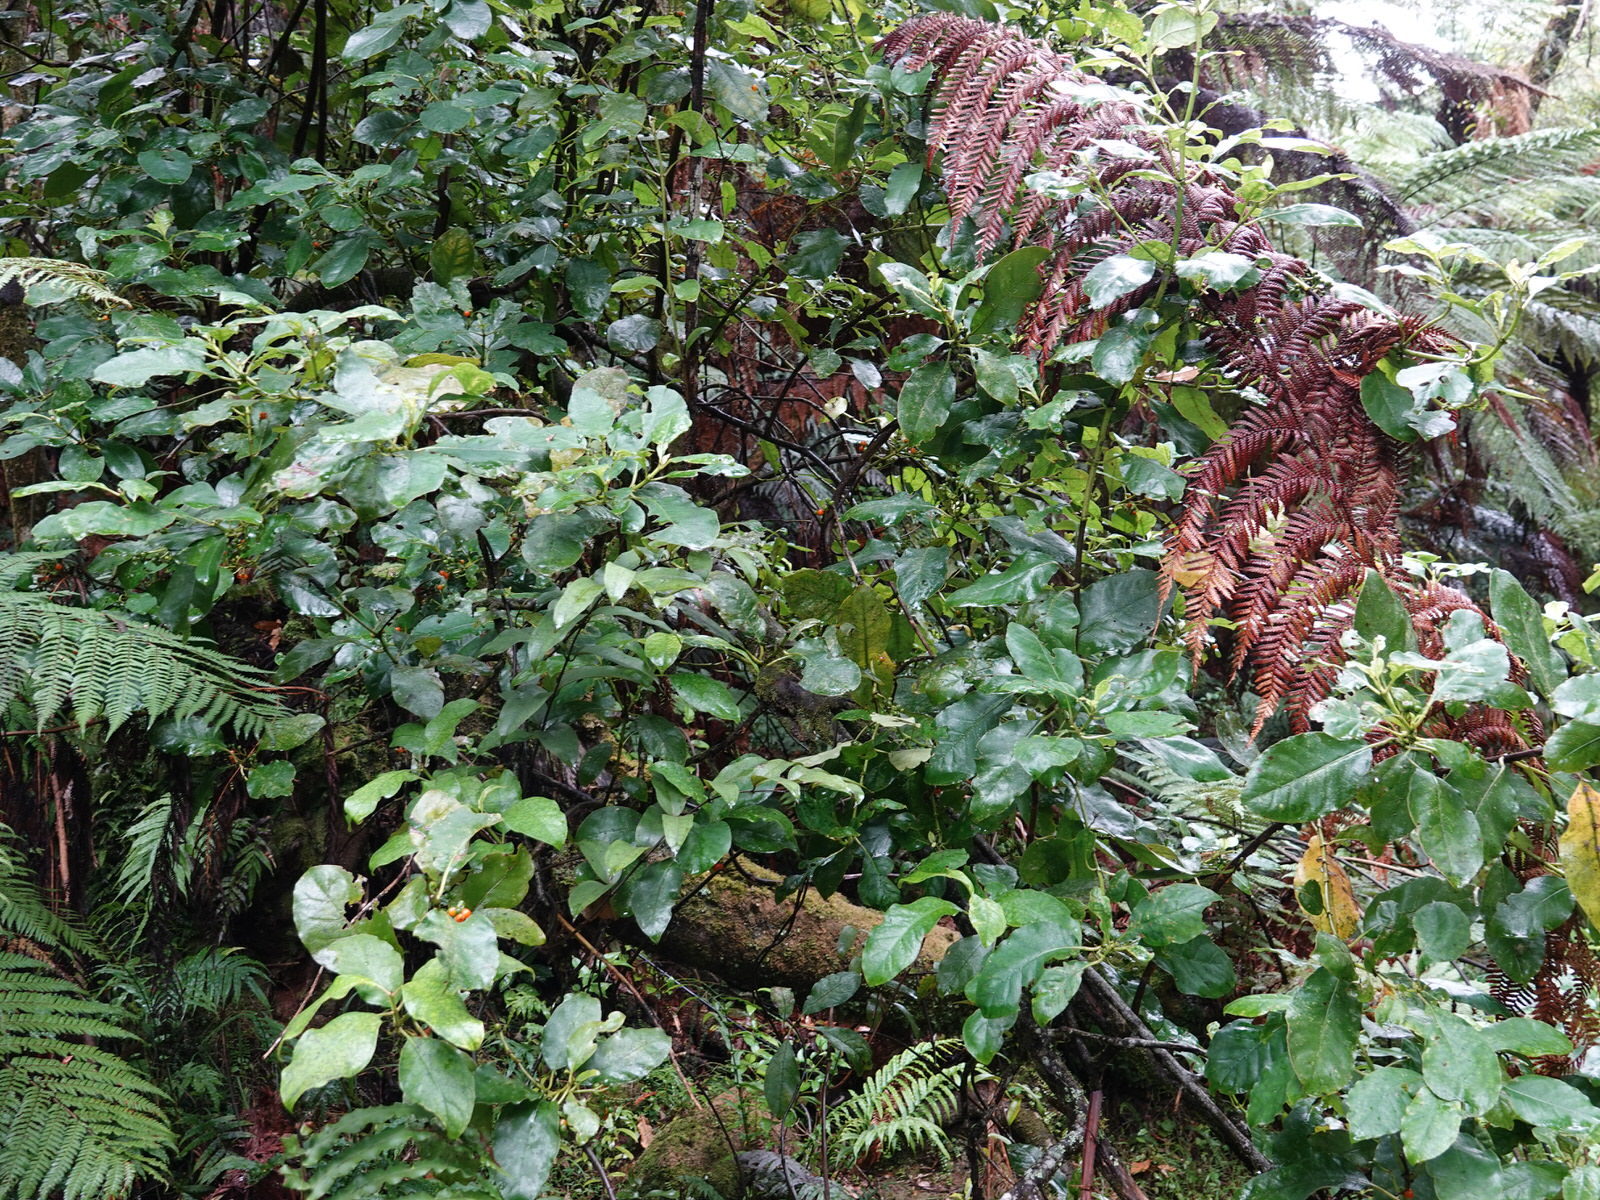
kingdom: Plantae
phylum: Tracheophyta
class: Magnoliopsida
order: Gentianales
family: Rubiaceae
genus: Coprosma
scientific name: Coprosma autumnalis
